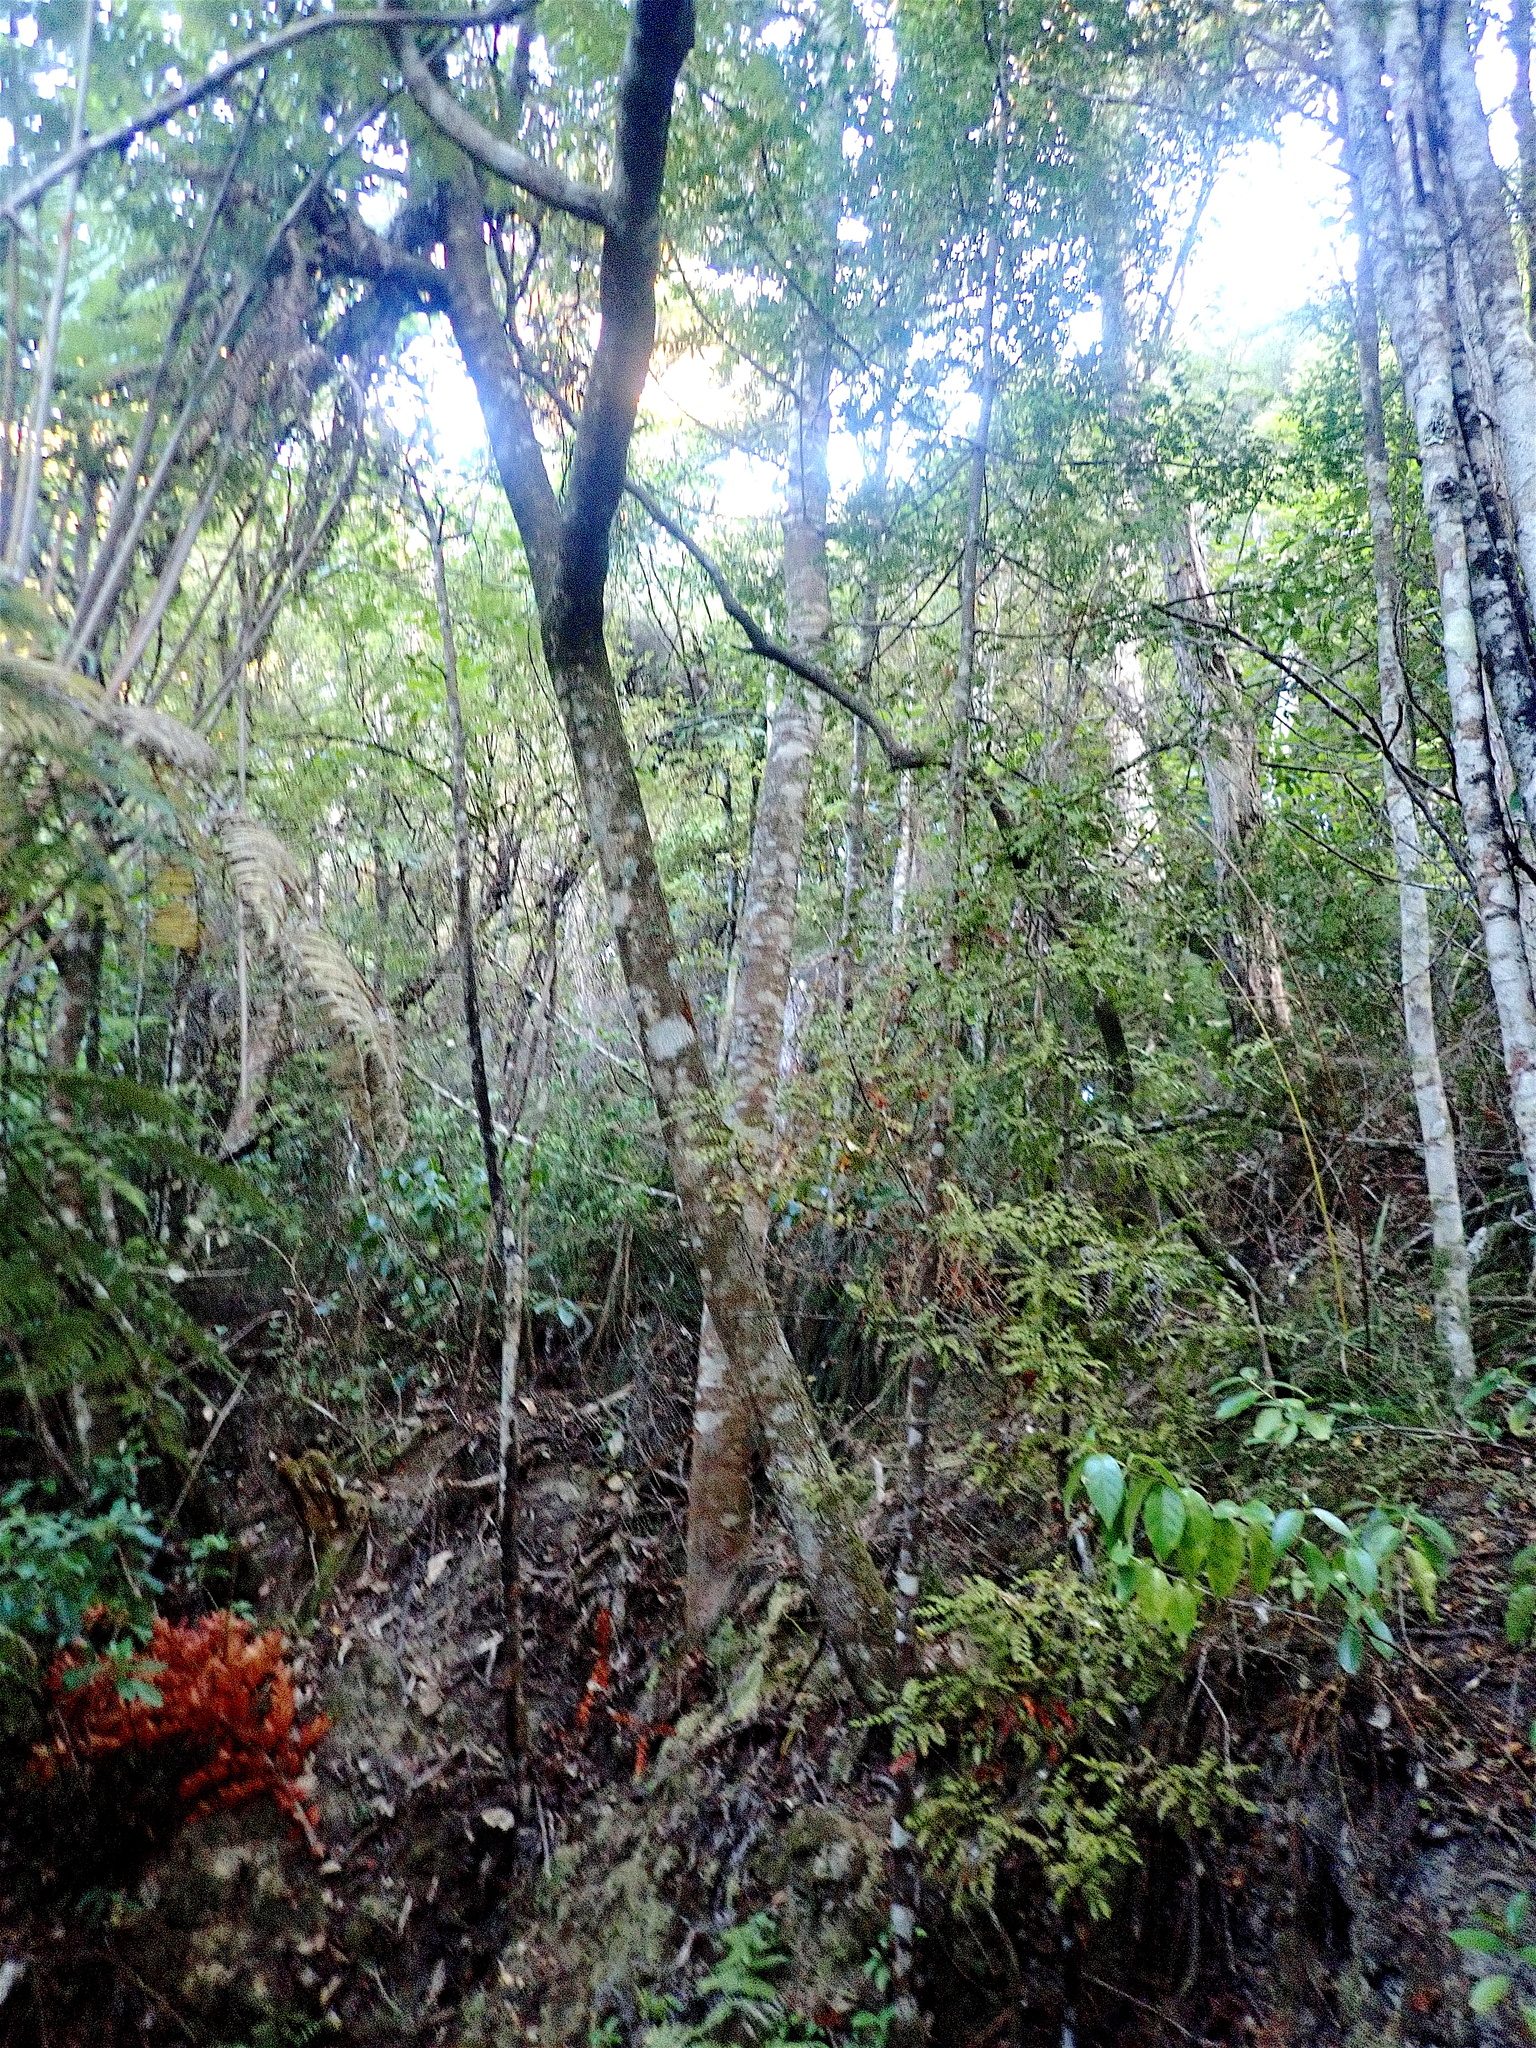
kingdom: Plantae
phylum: Tracheophyta
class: Pinopsida
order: Pinales
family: Phyllocladaceae
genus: Phyllocladus
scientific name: Phyllocladus trichomanoides
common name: Celery pine
